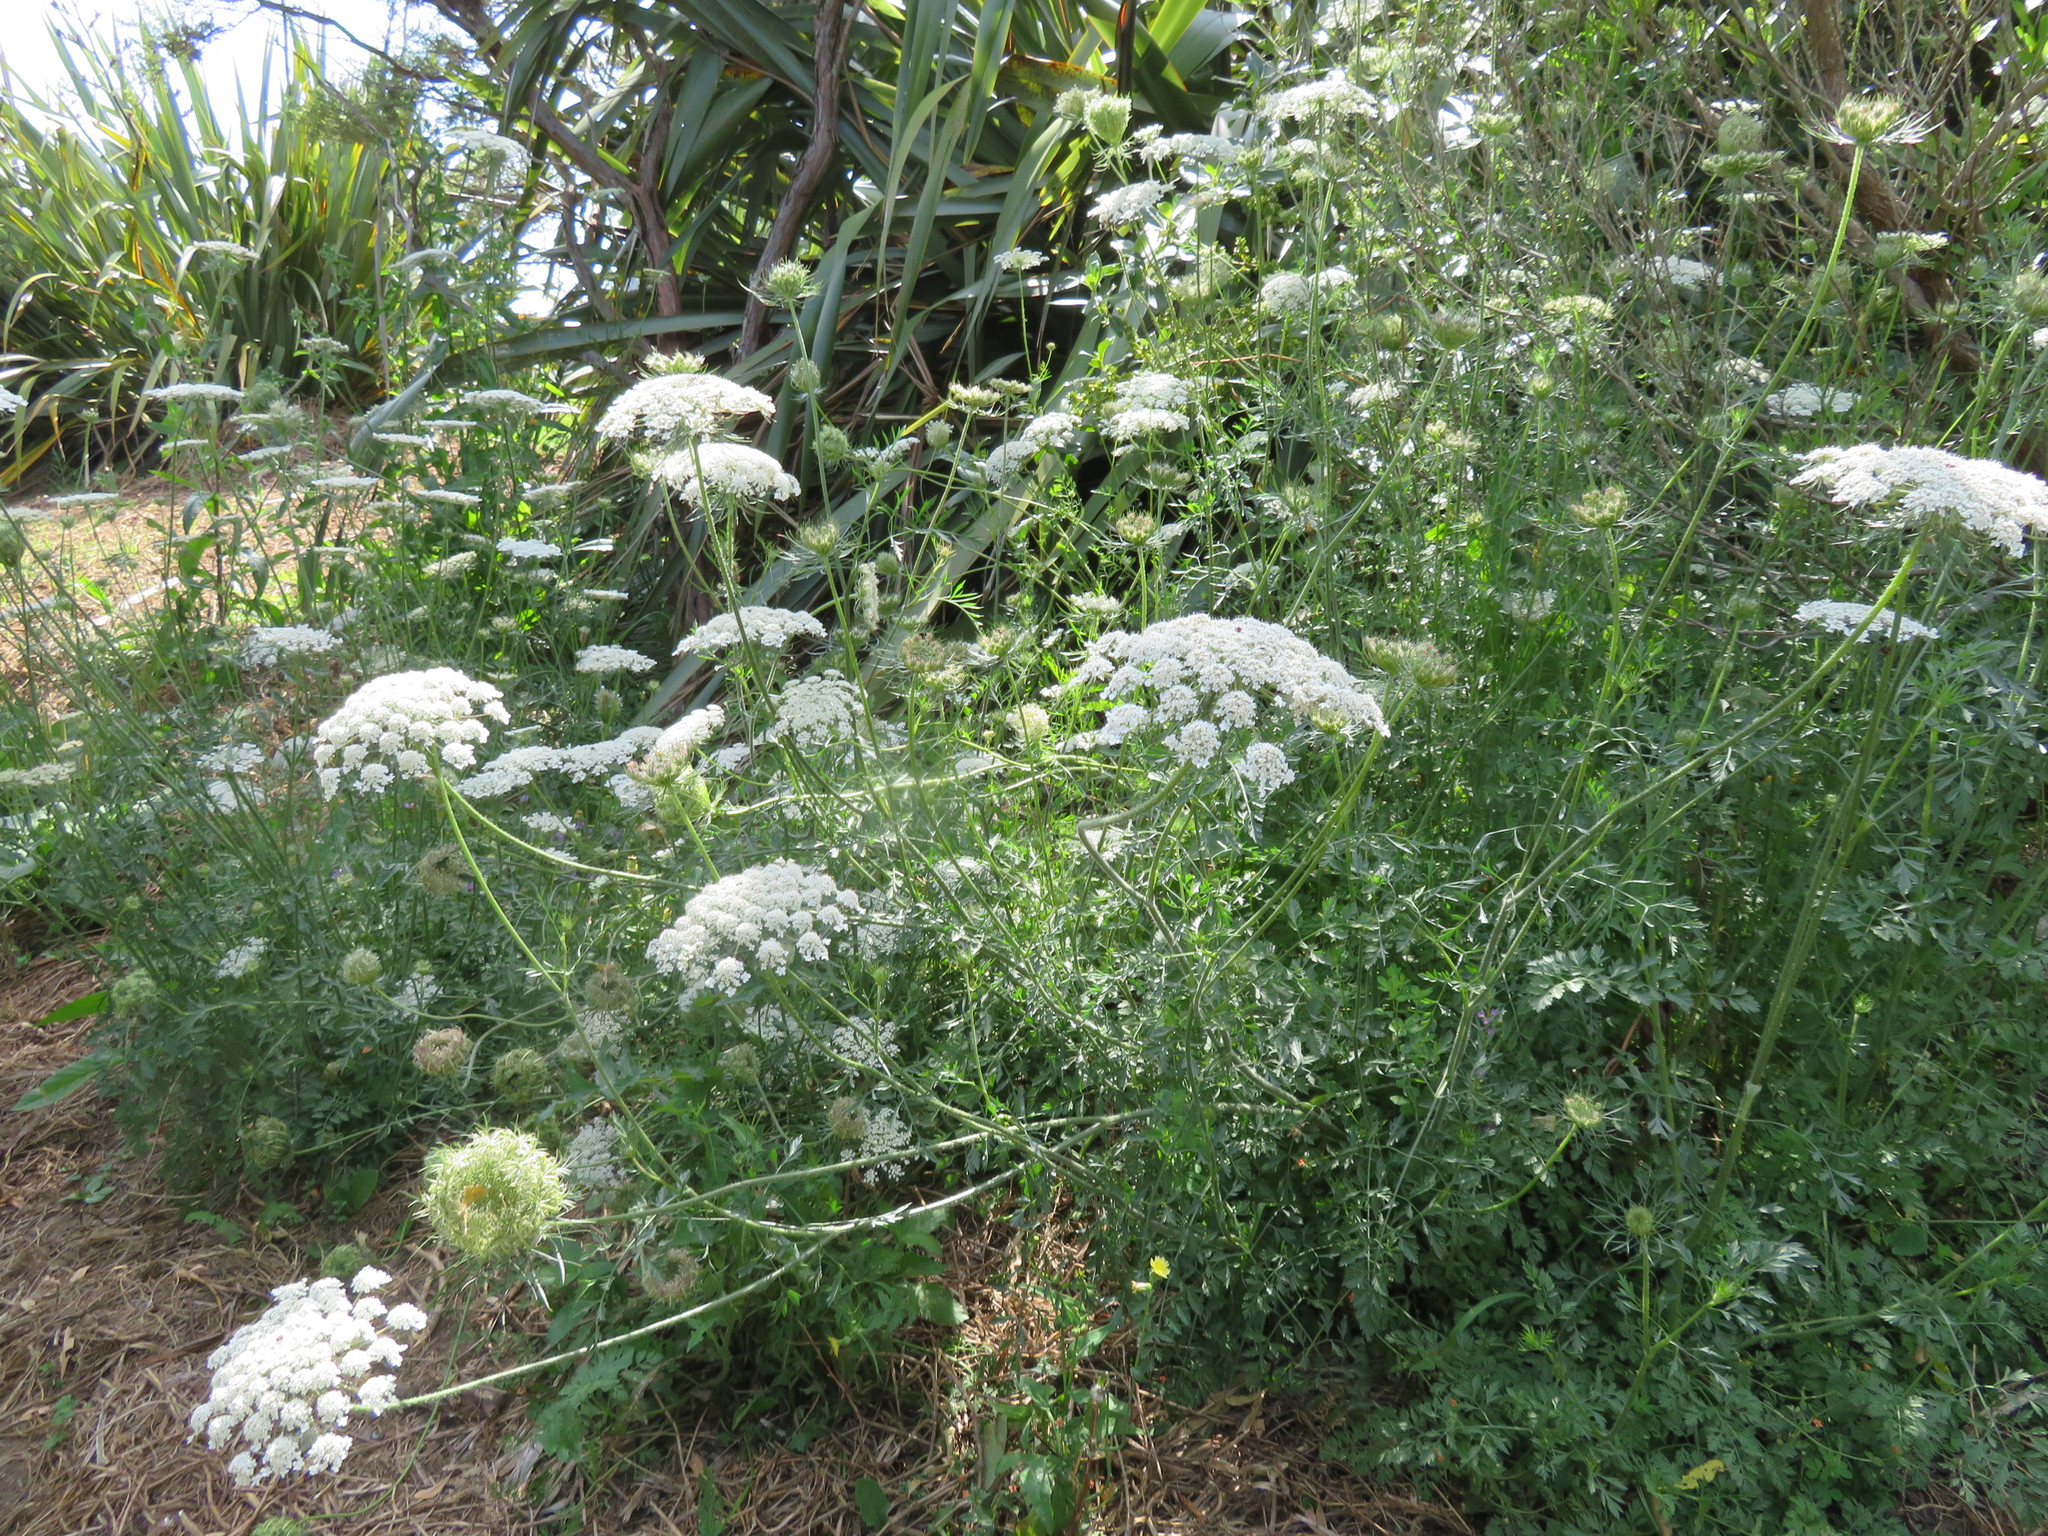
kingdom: Plantae
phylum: Tracheophyta
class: Magnoliopsida
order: Apiales
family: Apiaceae
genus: Daucus
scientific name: Daucus carota
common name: Wild carrot
